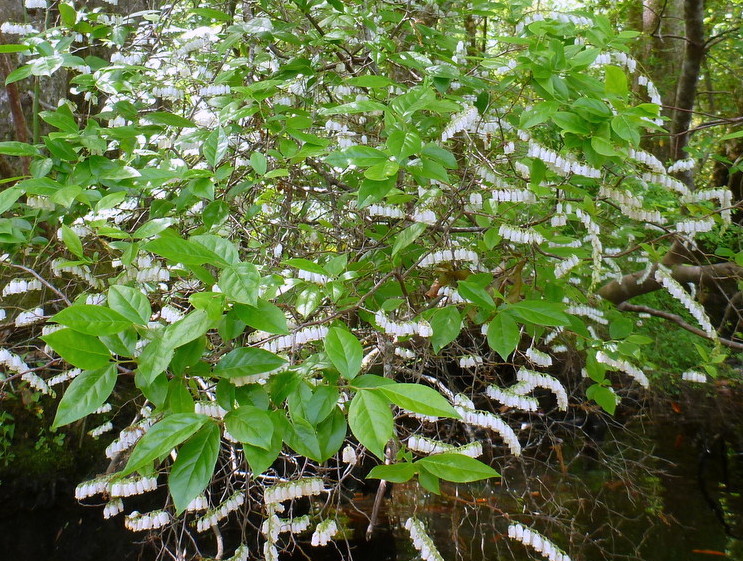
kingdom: Plantae
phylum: Tracheophyta
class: Magnoliopsida
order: Ericales
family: Ericaceae
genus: Eubotrys
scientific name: Eubotrys racemosa
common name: Fetterbush
